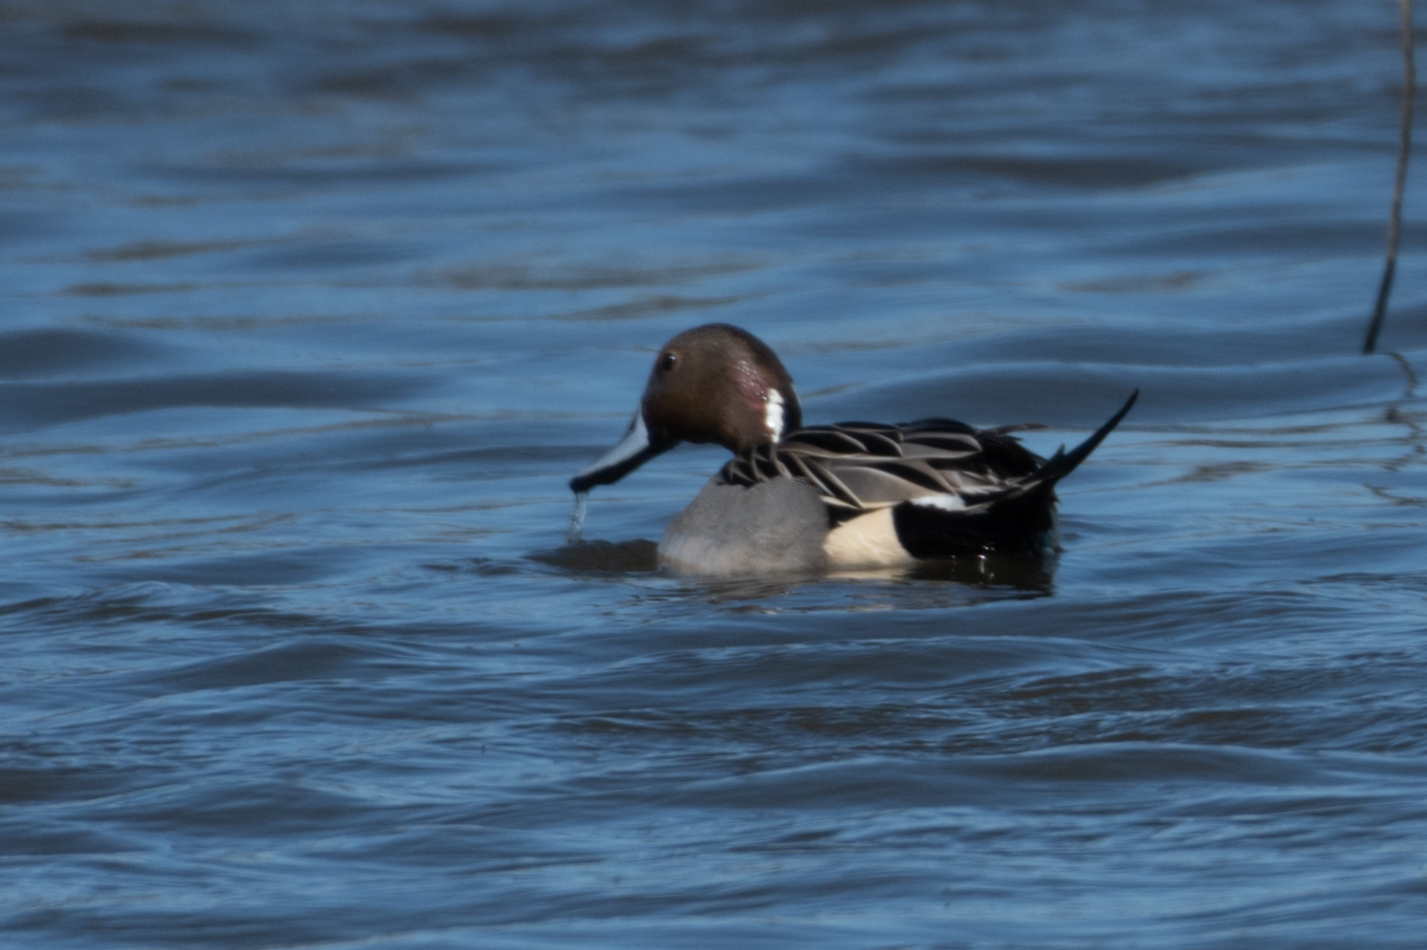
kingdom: Animalia
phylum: Chordata
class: Aves
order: Anseriformes
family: Anatidae
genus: Anas
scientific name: Anas acuta
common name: Northern pintail
